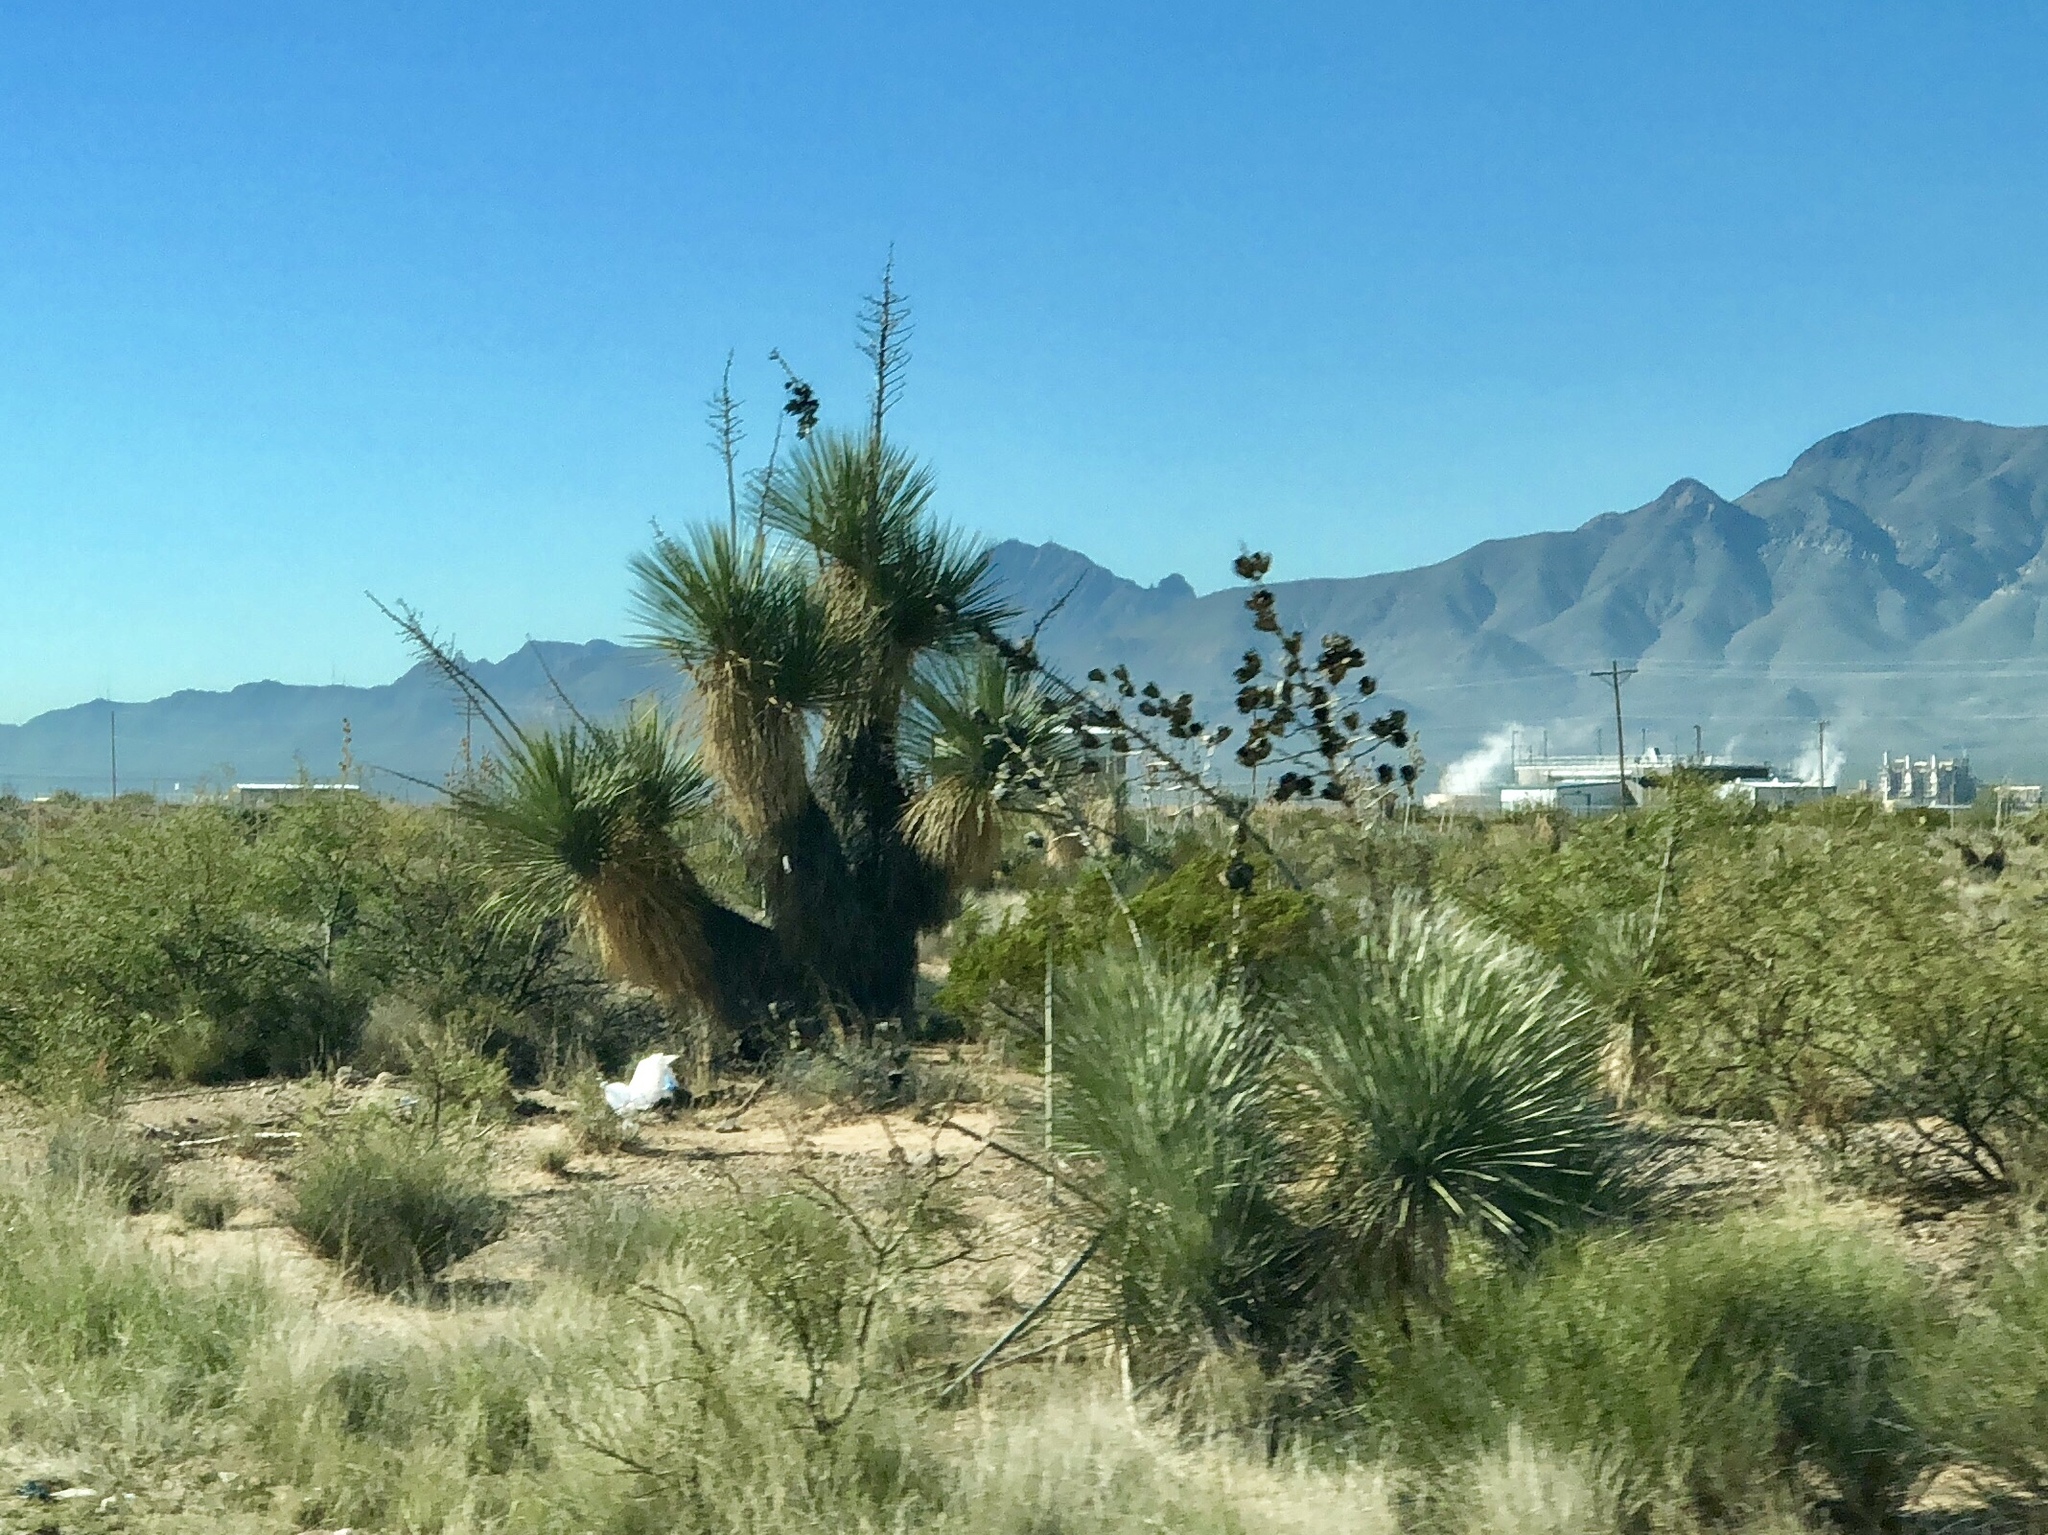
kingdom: Plantae
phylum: Tracheophyta
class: Liliopsida
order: Asparagales
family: Asparagaceae
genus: Yucca
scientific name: Yucca elata
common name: Palmella
